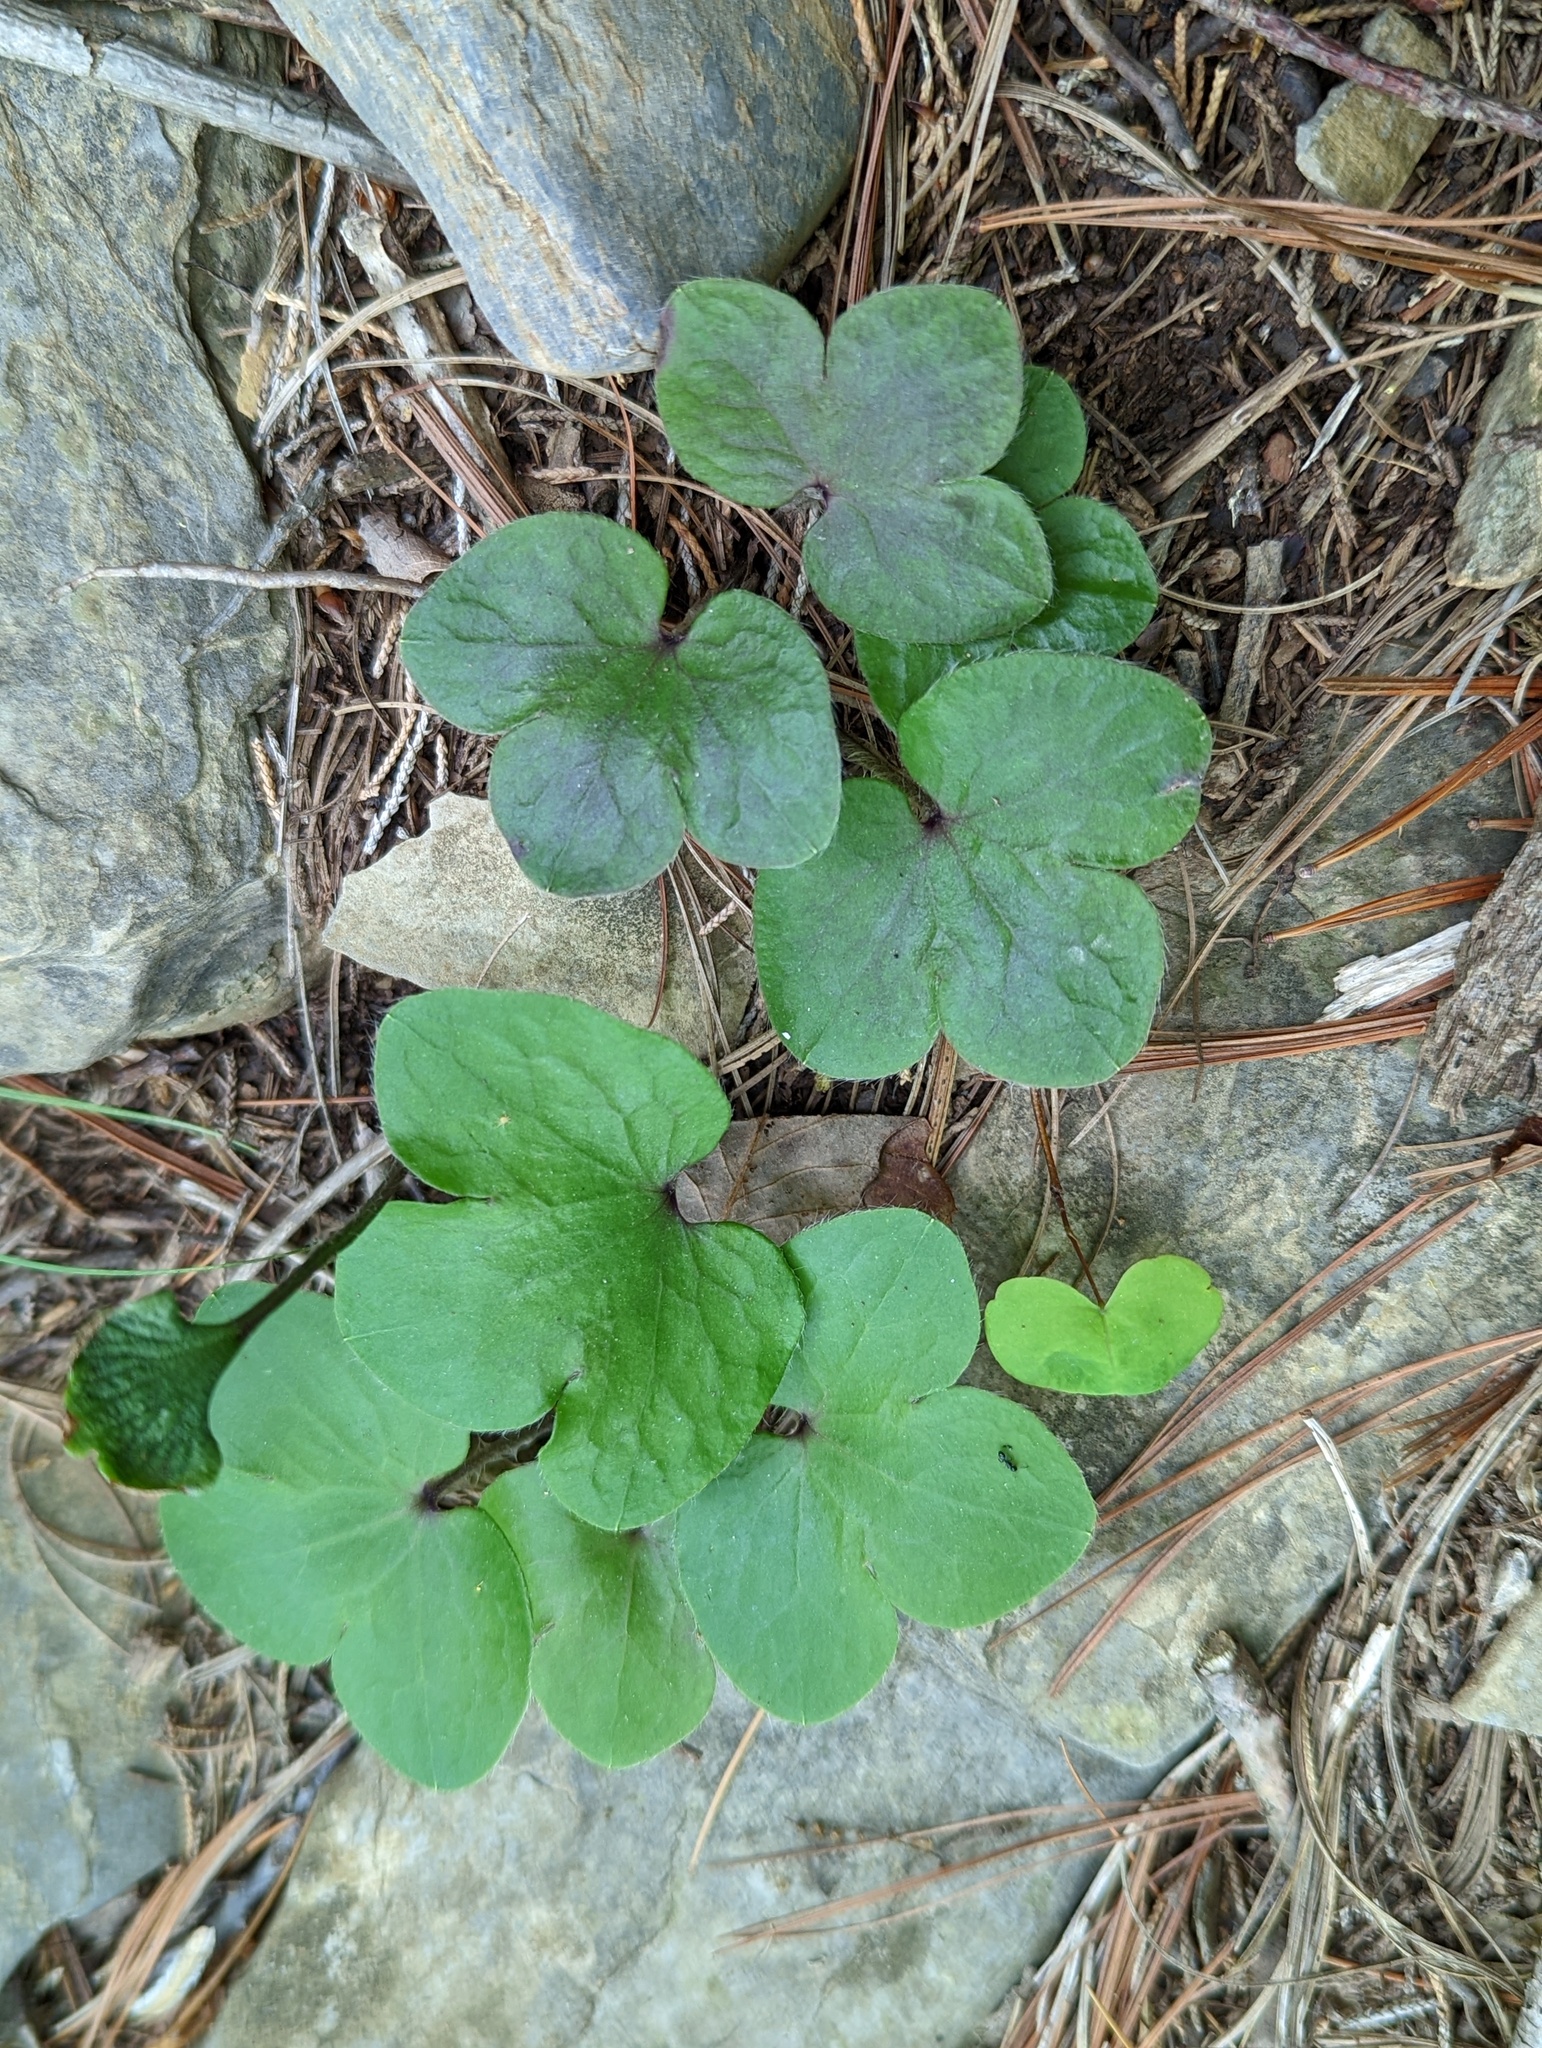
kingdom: Plantae
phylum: Tracheophyta
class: Magnoliopsida
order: Ranunculales
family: Ranunculaceae
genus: Hepatica
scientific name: Hepatica americana
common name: American hepatica
